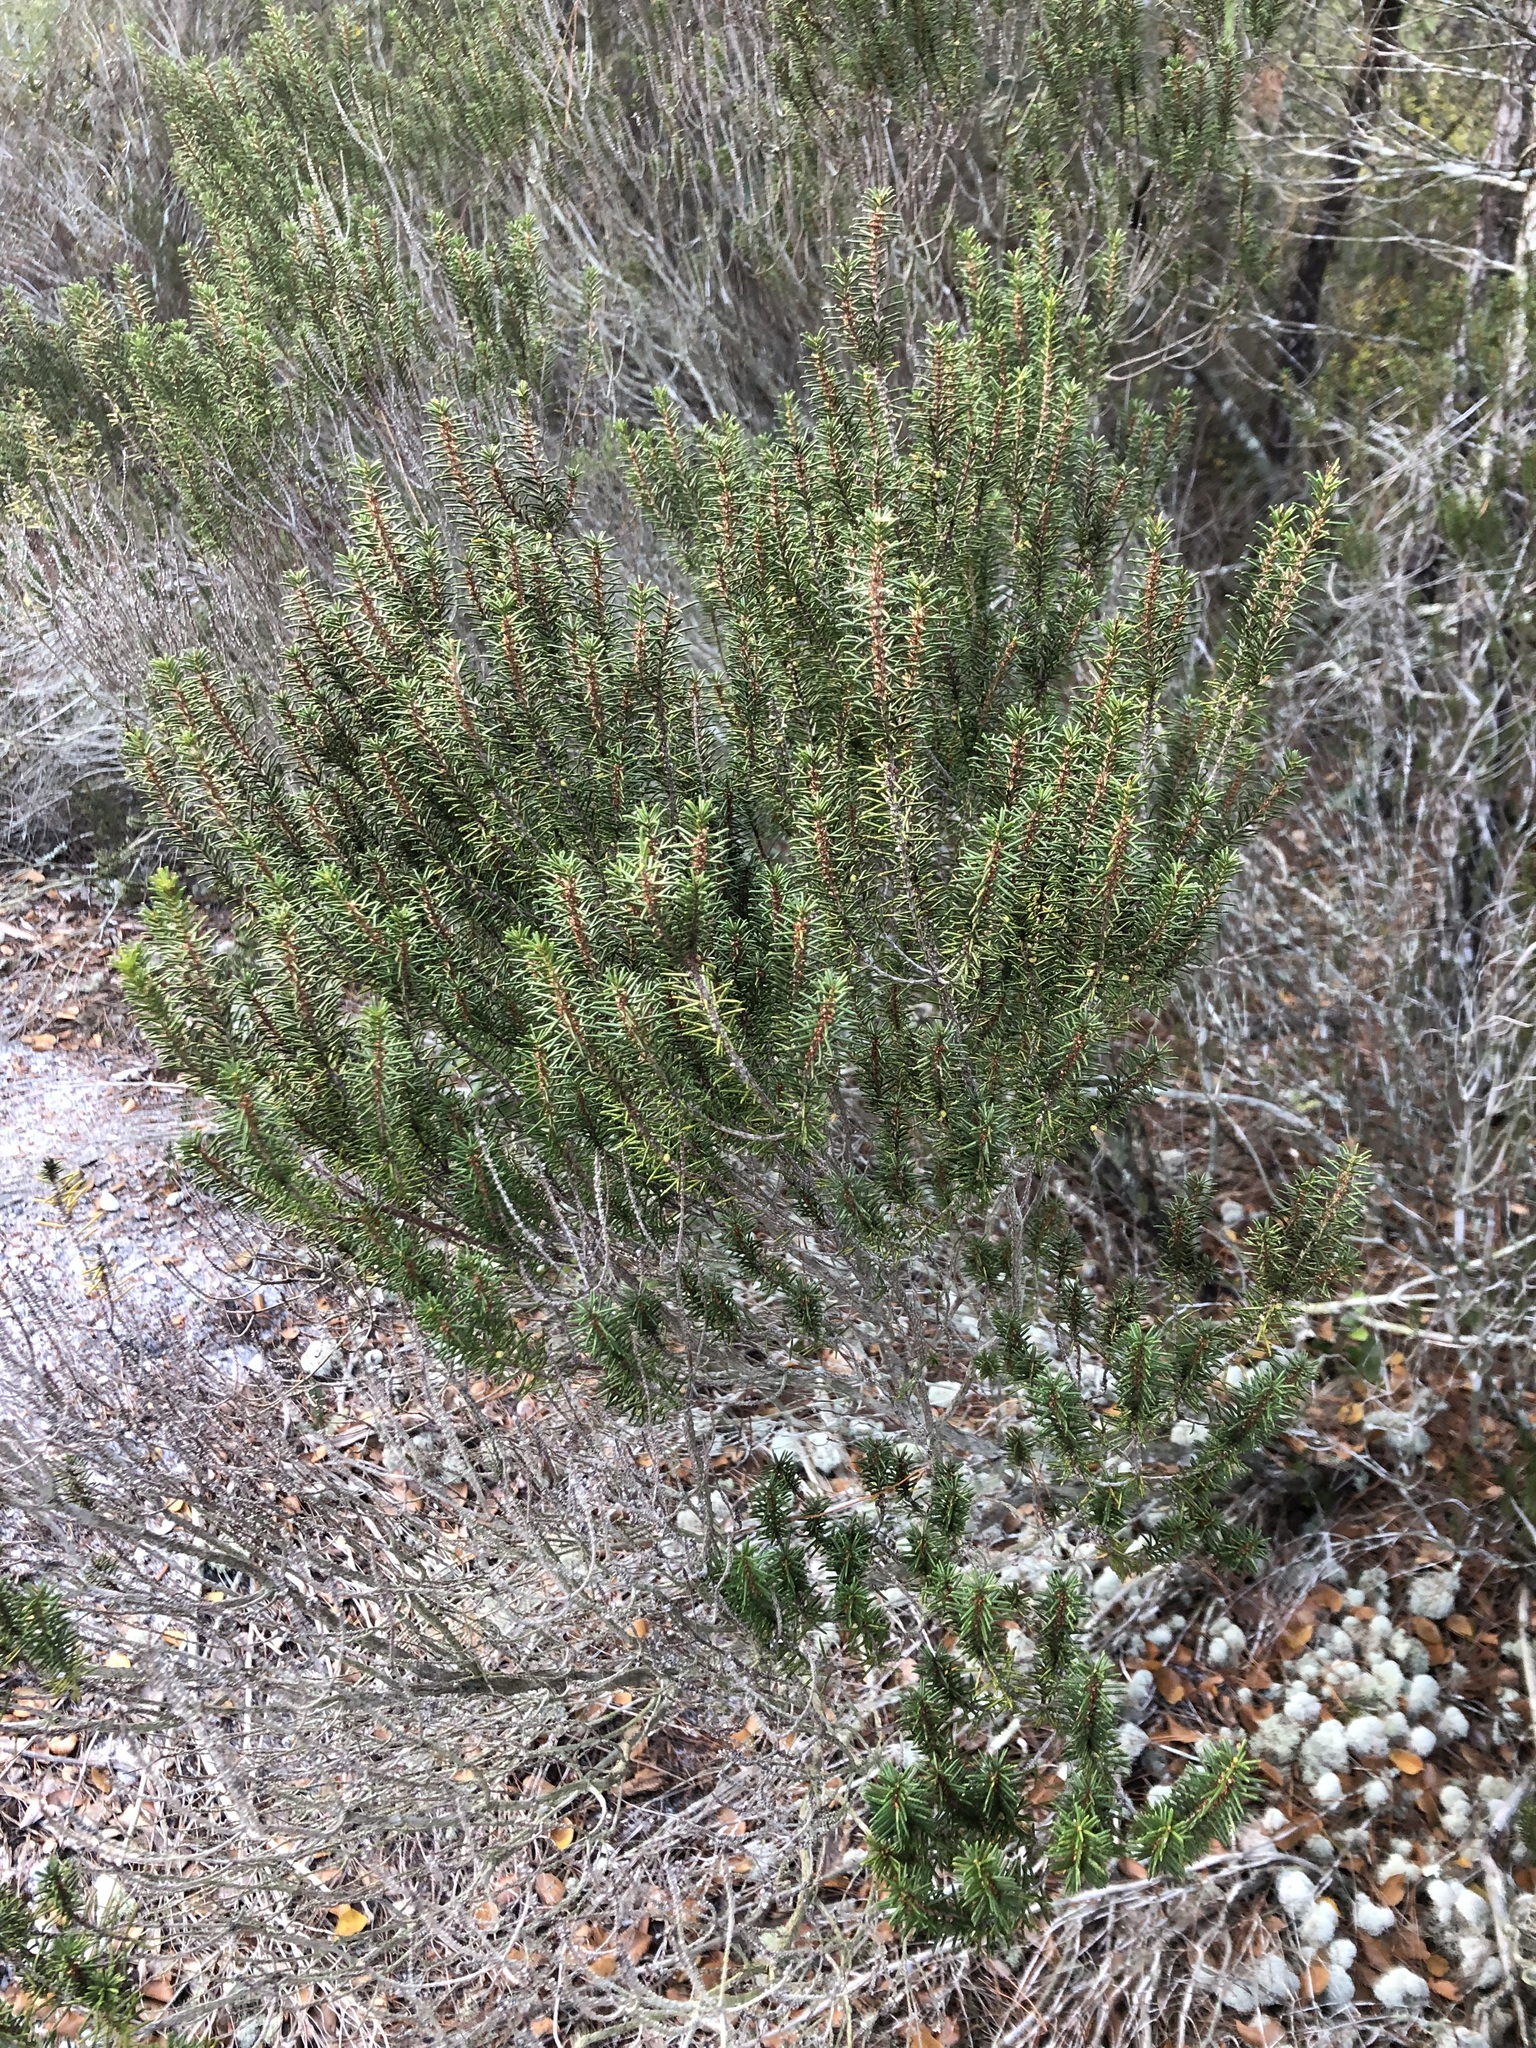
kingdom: Plantae
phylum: Tracheophyta
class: Magnoliopsida
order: Ericales
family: Ericaceae
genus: Ceratiola
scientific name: Ceratiola ericoides
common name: Sandhill-rosemary
